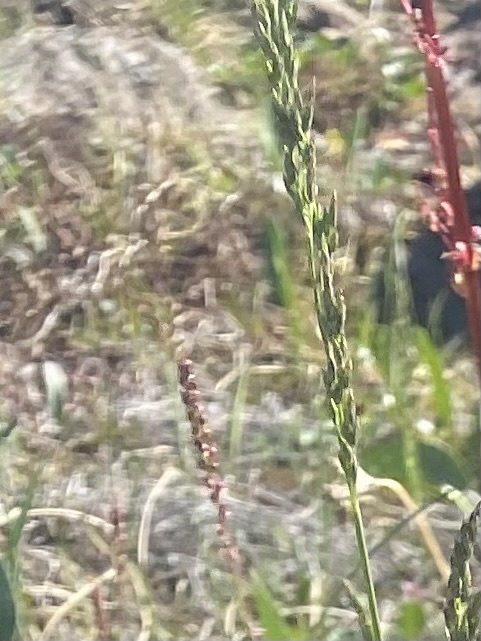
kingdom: Plantae
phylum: Tracheophyta
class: Liliopsida
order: Poales
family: Poaceae
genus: Poa
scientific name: Poa alpigena
